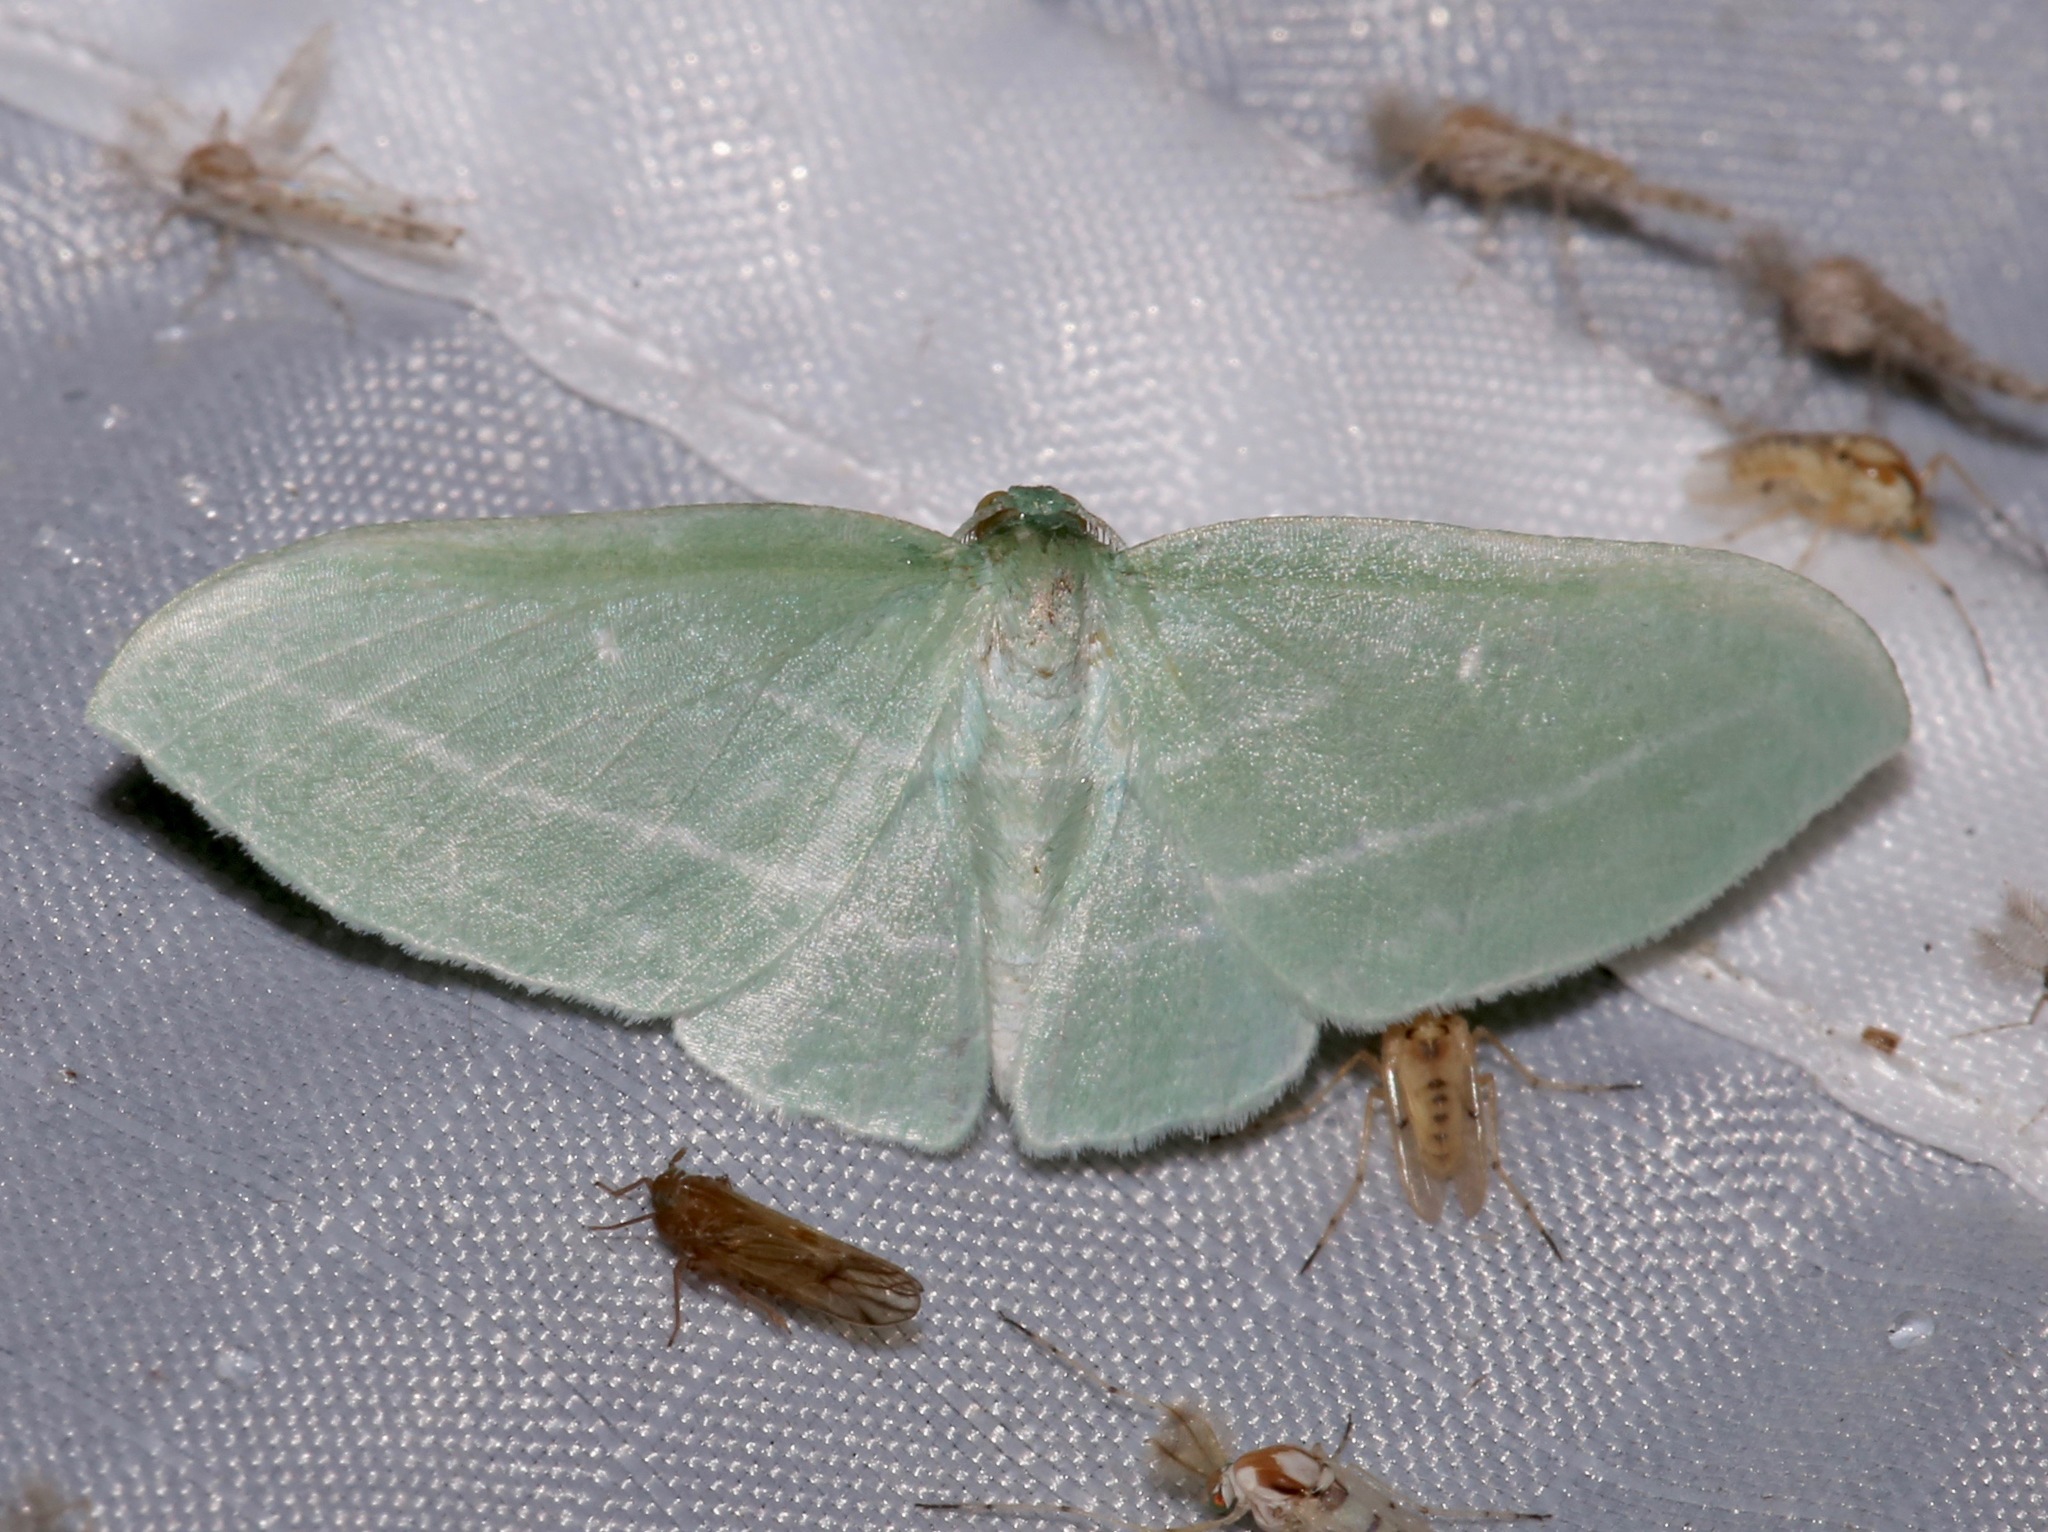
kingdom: Animalia
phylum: Arthropoda
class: Insecta
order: Lepidoptera
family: Geometridae
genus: Dyspteris
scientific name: Dyspteris abortivaria
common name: Bad-wing
